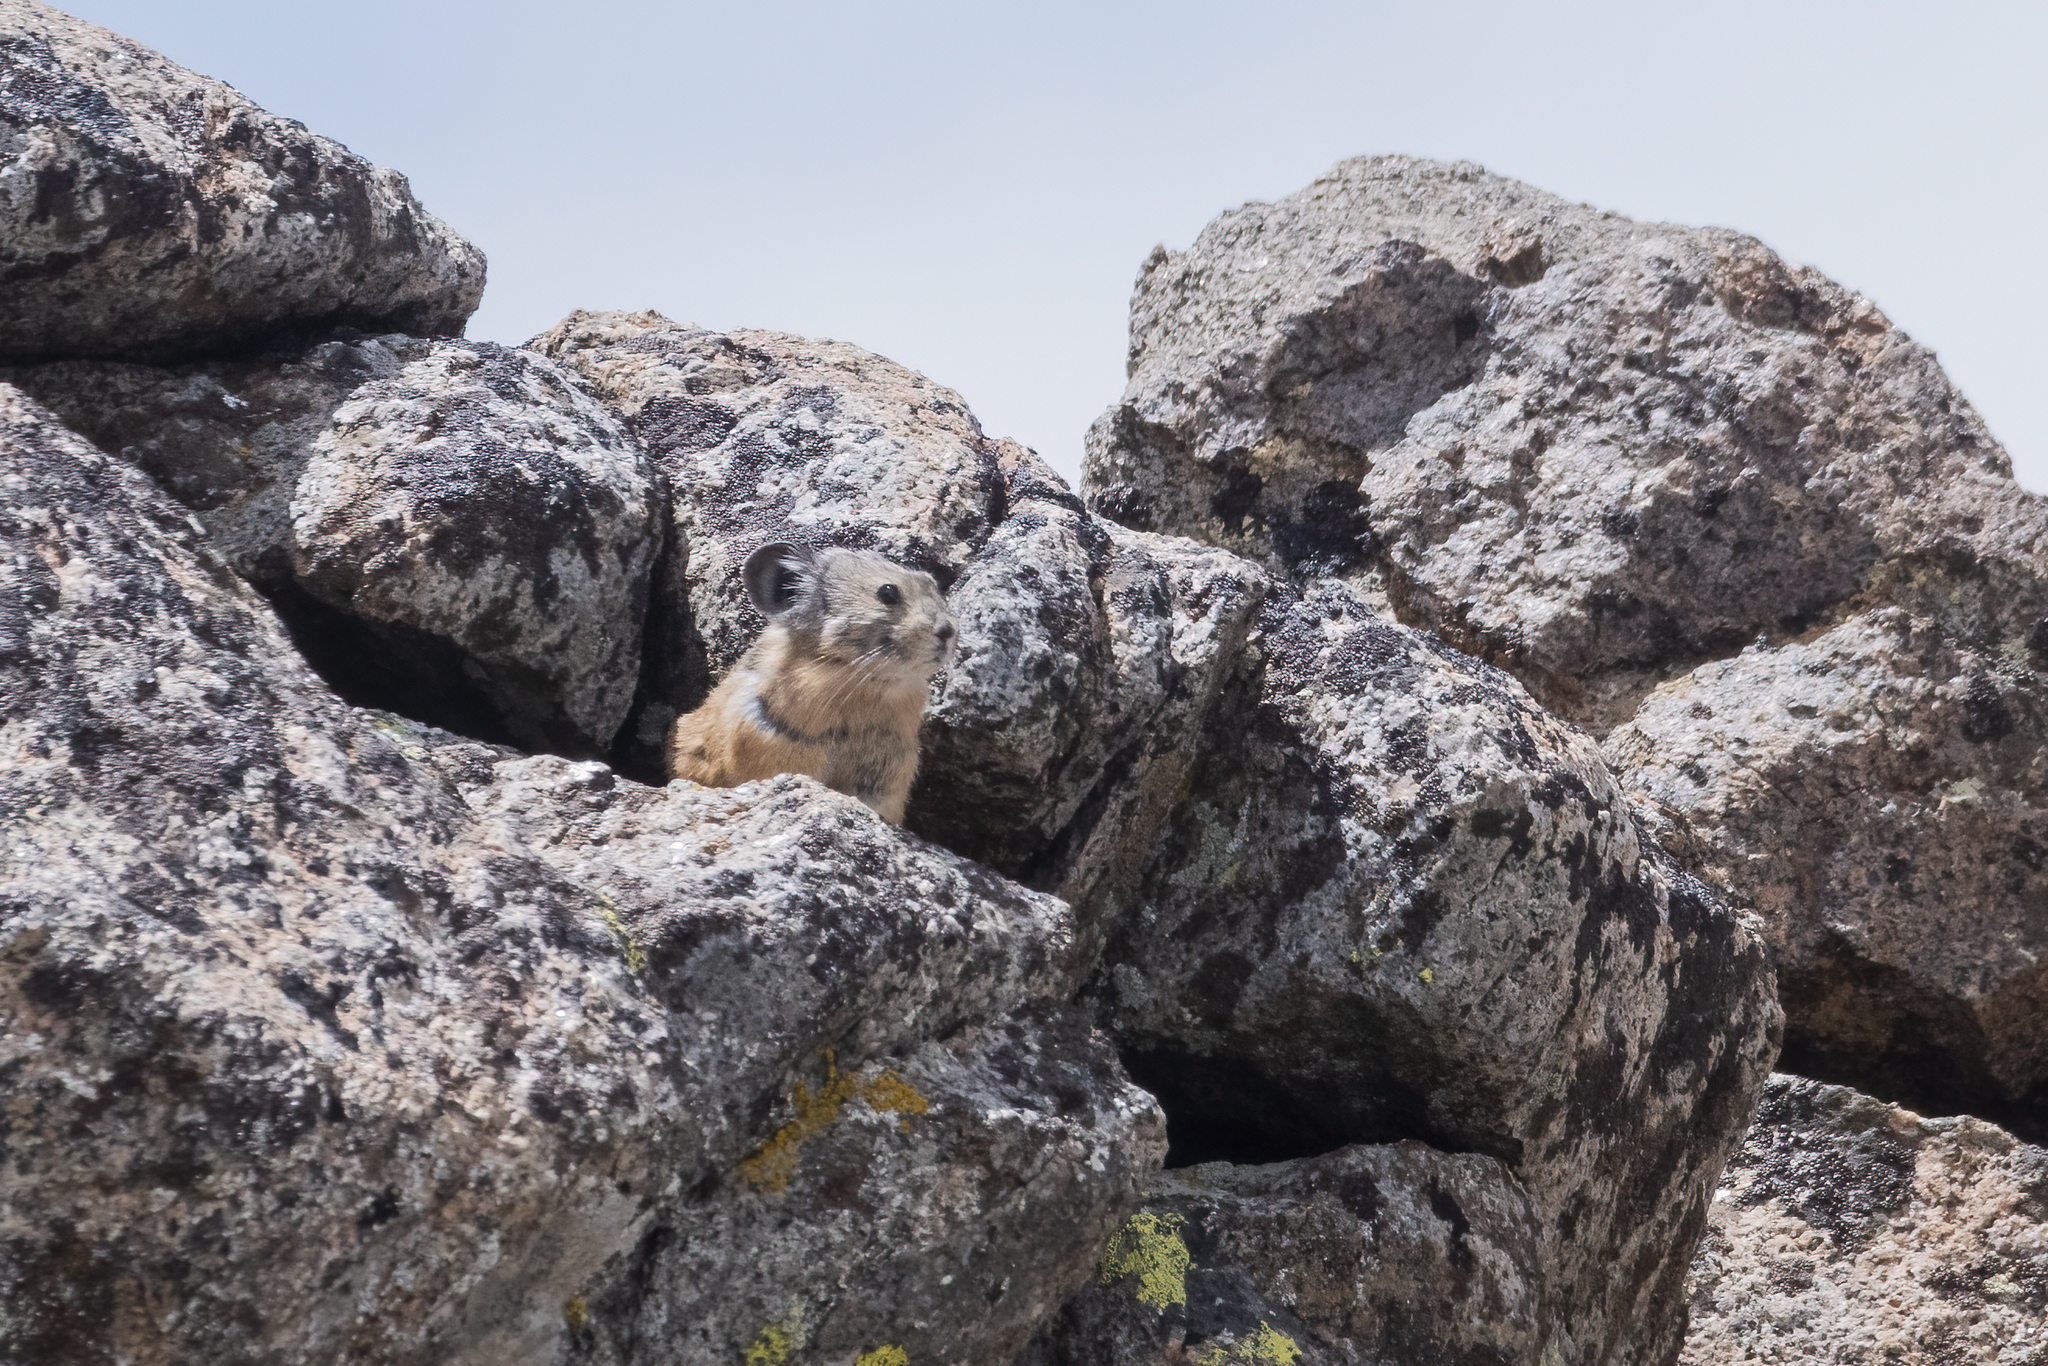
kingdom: Animalia
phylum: Chordata
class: Mammalia
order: Lagomorpha
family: Ochotonidae
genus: Ochotona
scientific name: Ochotona princeps
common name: American pika
